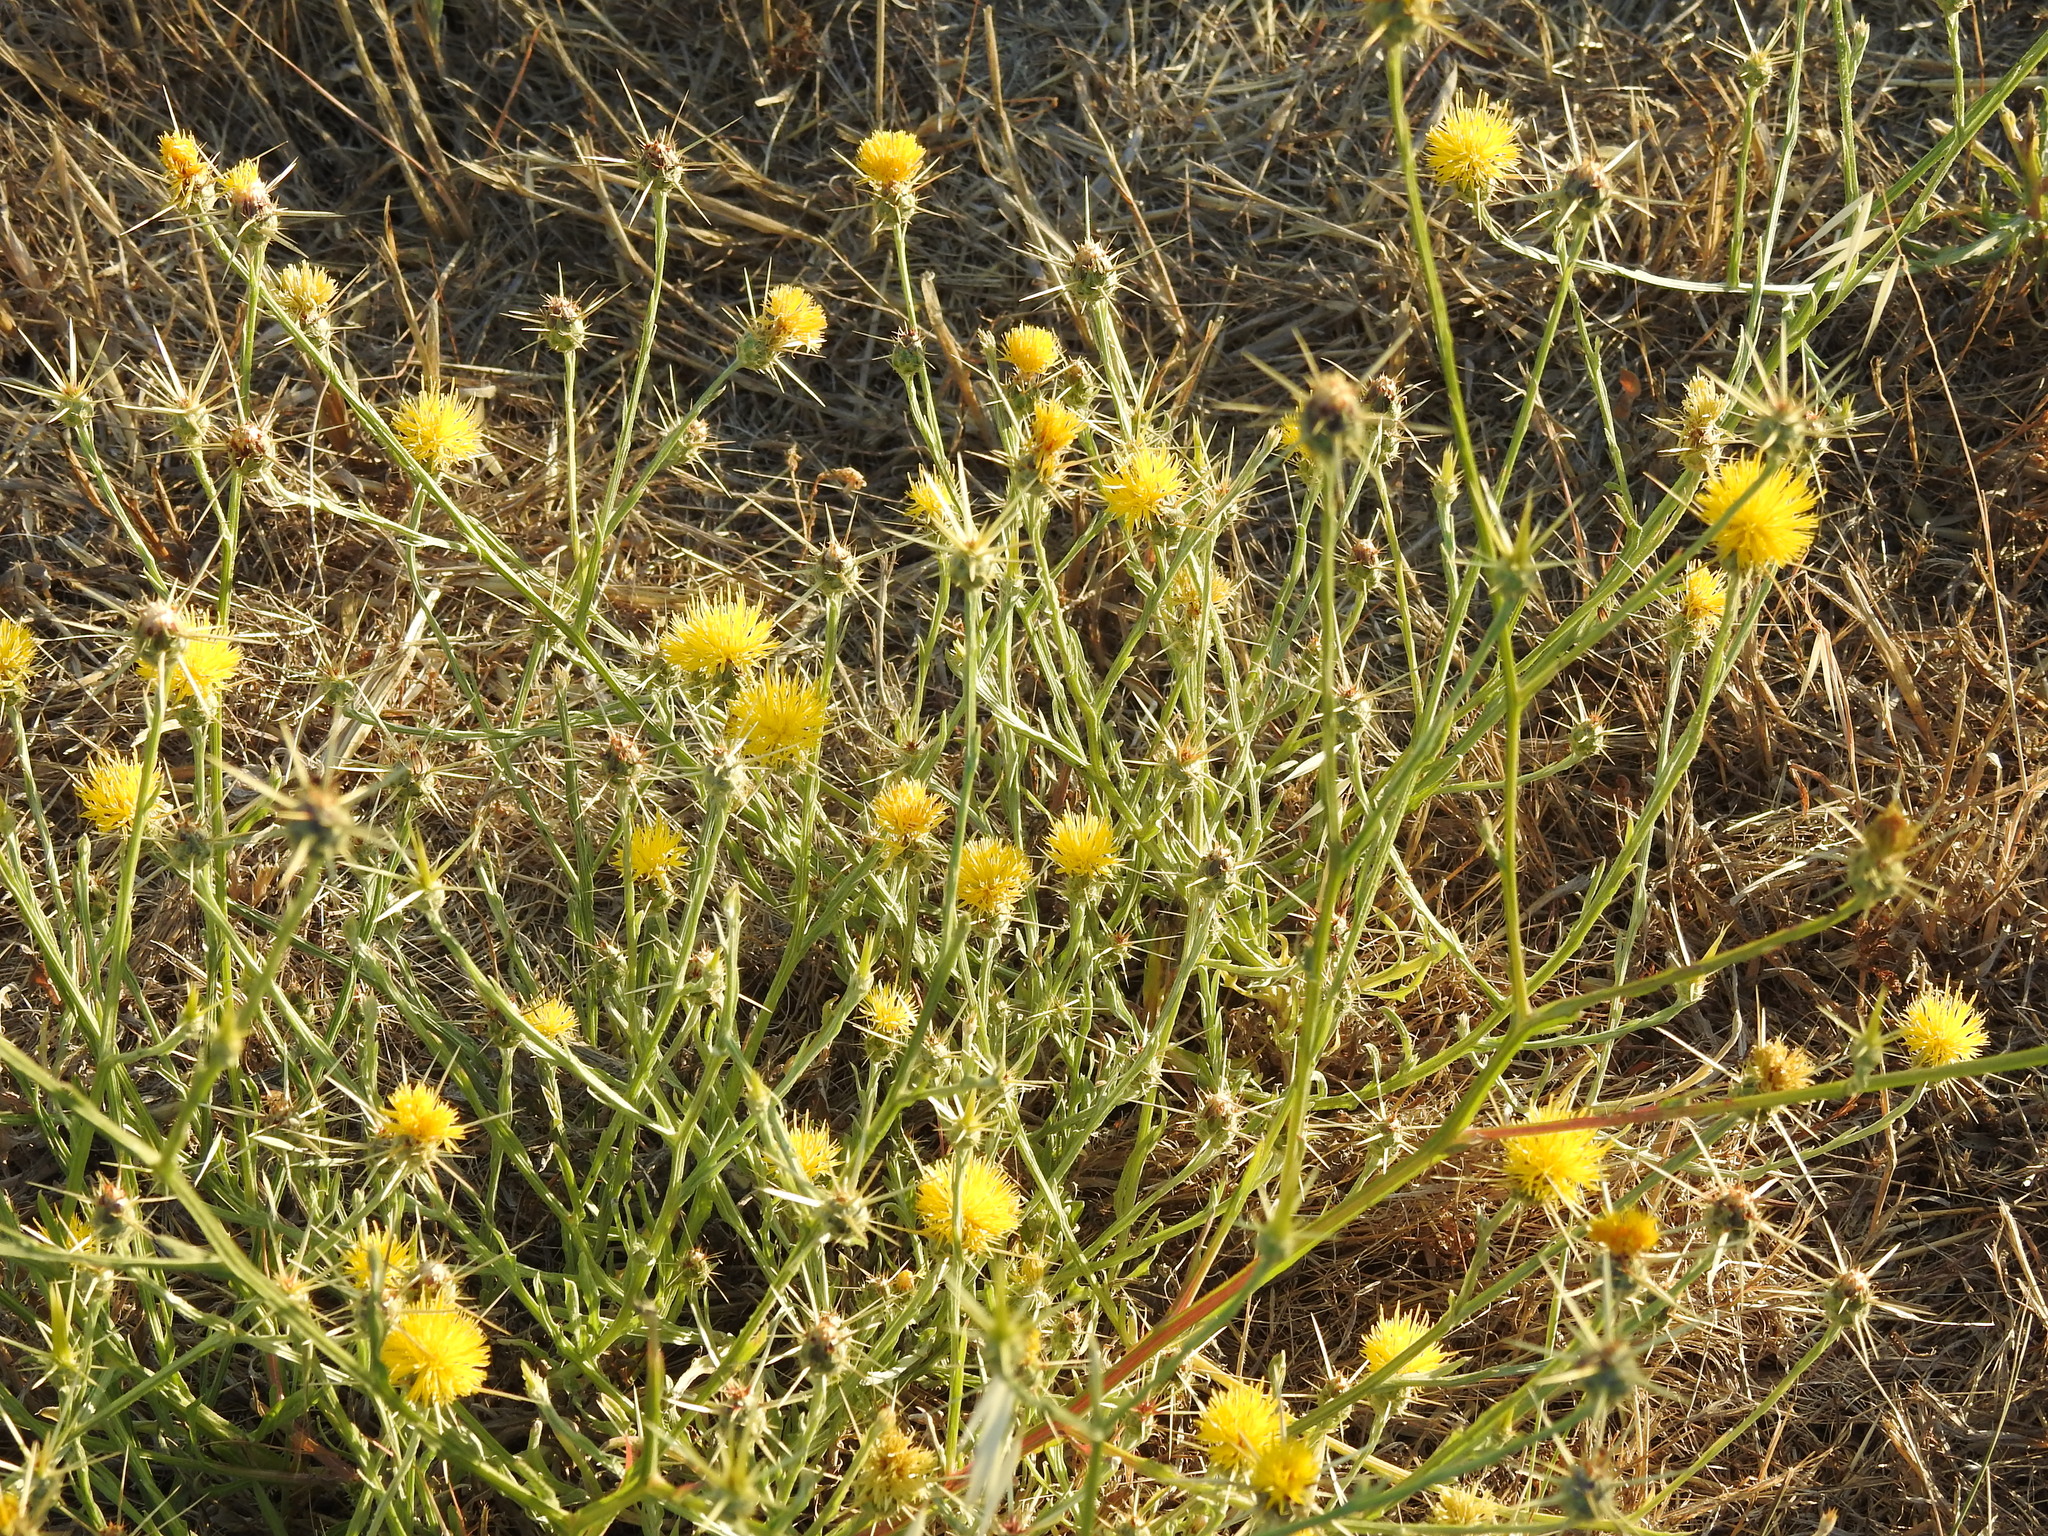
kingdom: Plantae
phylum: Tracheophyta
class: Magnoliopsida
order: Asterales
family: Asteraceae
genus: Centaurea
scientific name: Centaurea solstitialis
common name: Yellow star-thistle
